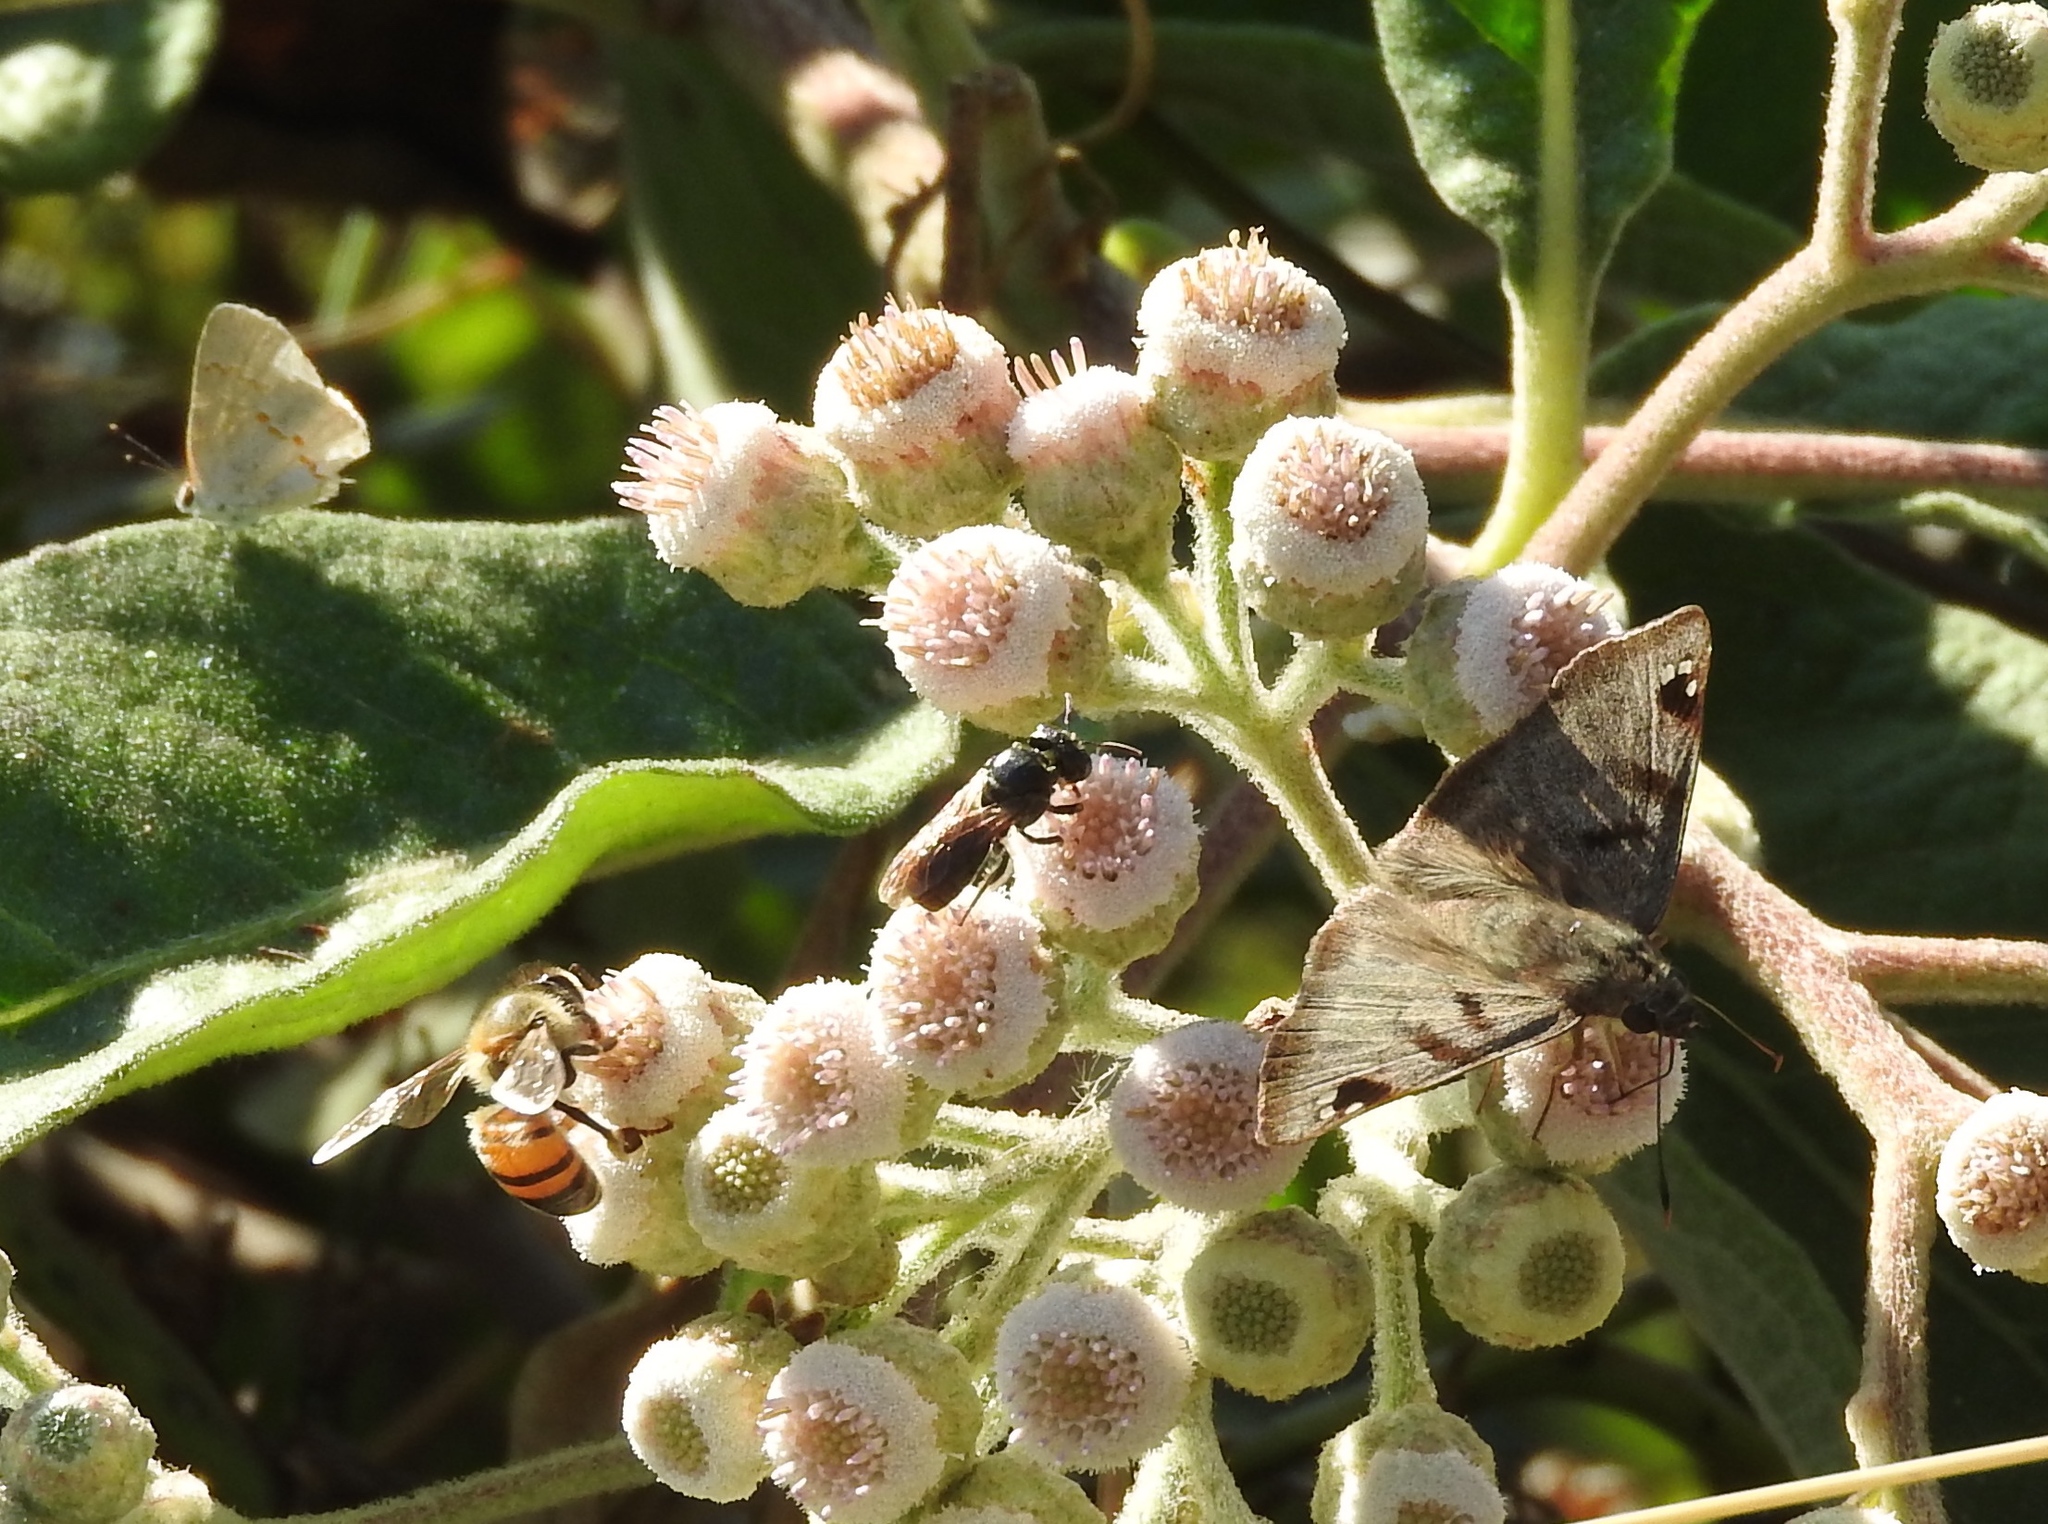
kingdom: Animalia
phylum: Arthropoda
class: Insecta
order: Lepidoptera
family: Hesperiidae
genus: Arteurotia
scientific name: Arteurotia tractipennis
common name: Starred skipper
